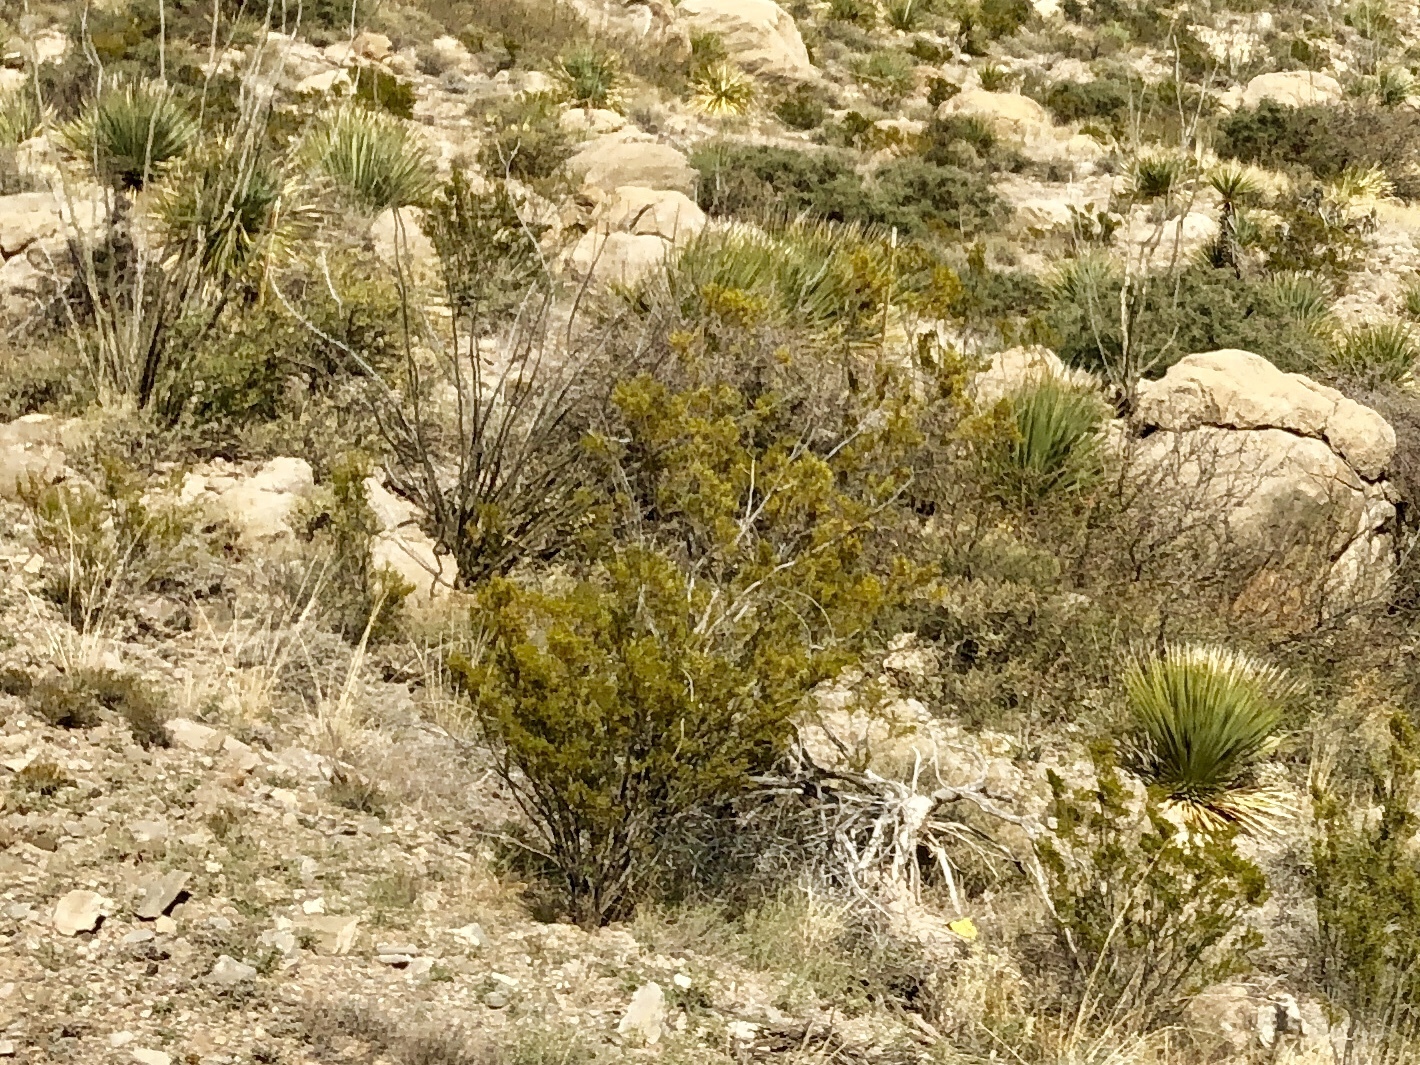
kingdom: Plantae
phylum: Tracheophyta
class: Magnoliopsida
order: Zygophyllales
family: Zygophyllaceae
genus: Larrea
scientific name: Larrea tridentata
